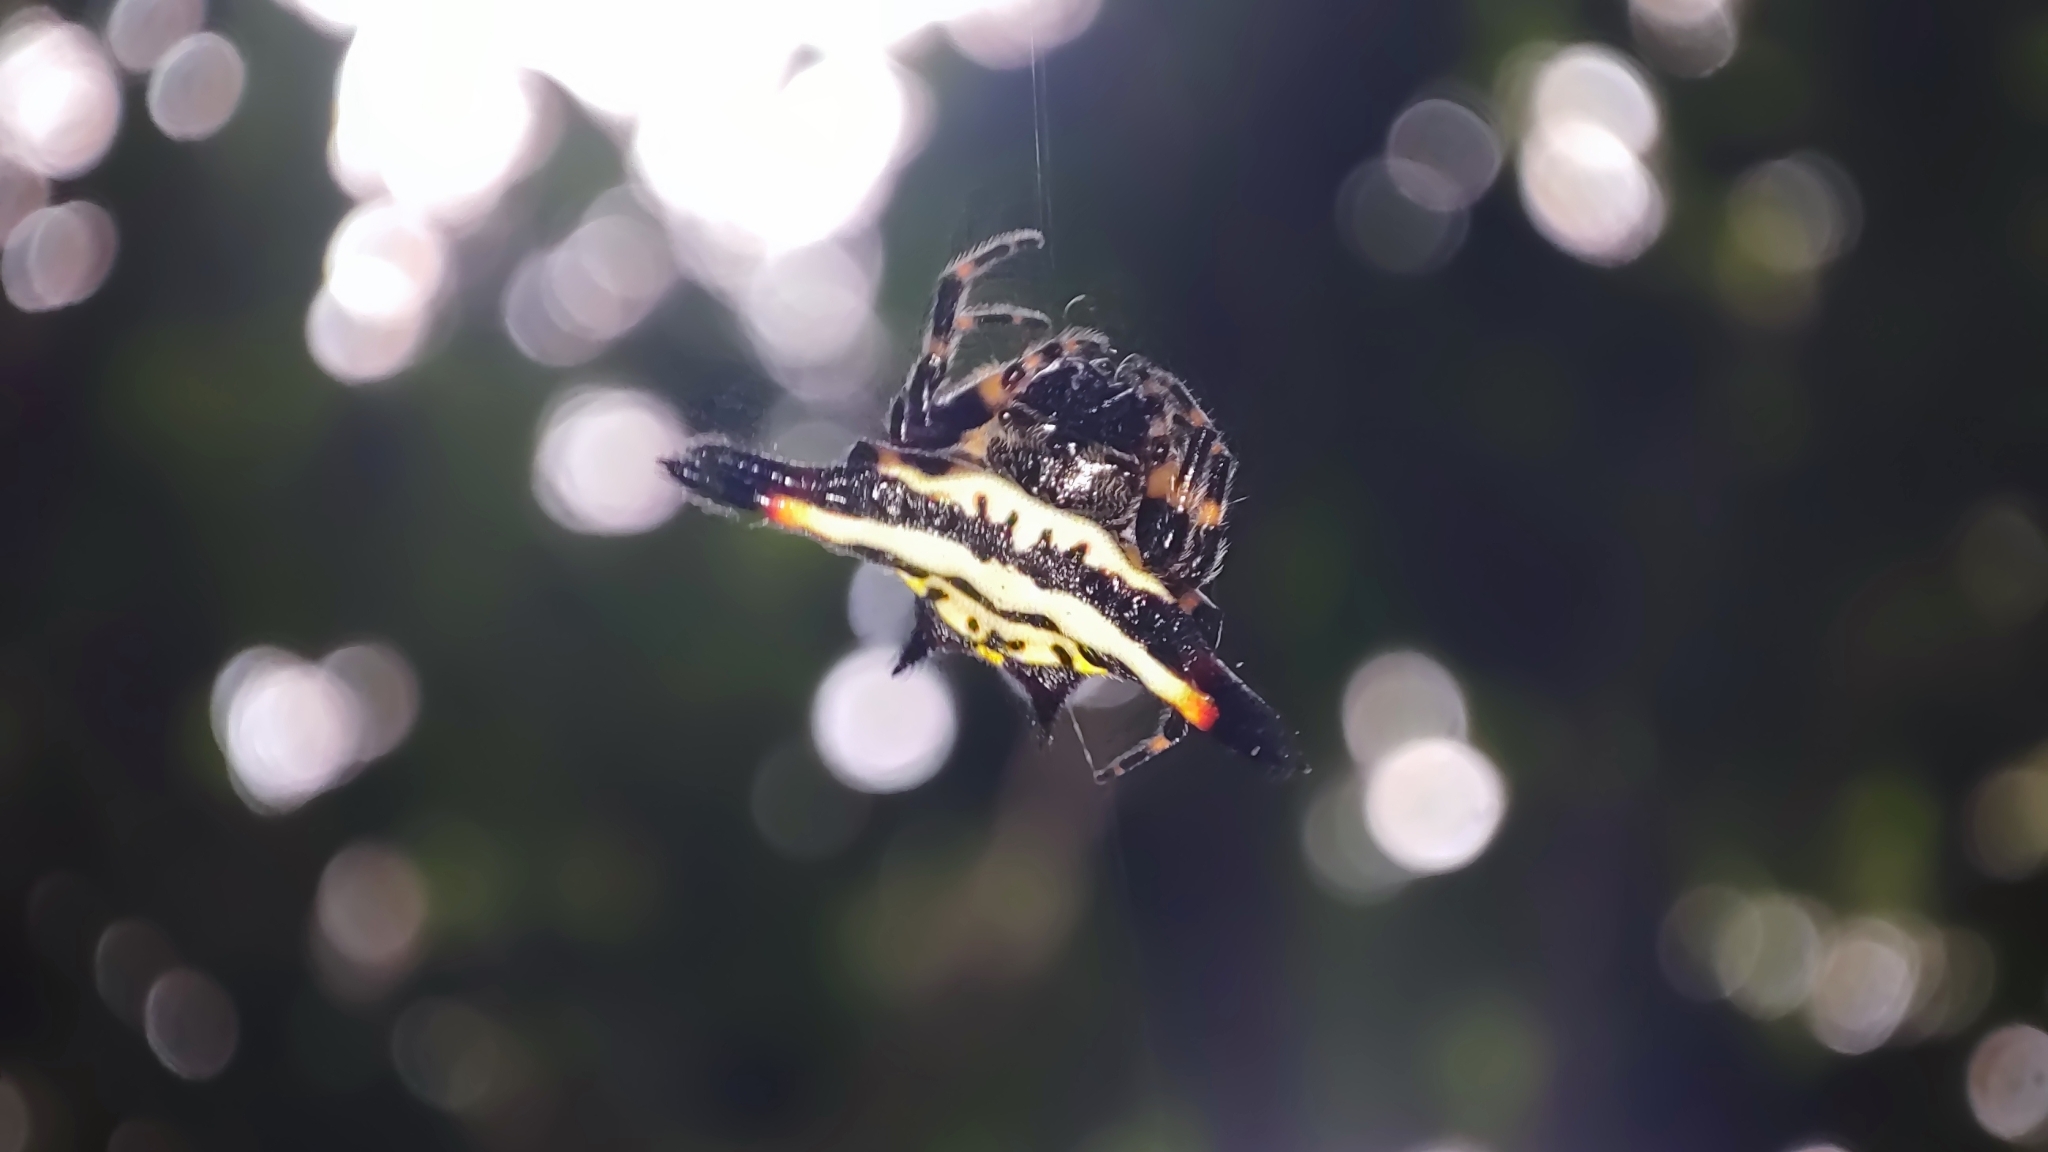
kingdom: Animalia
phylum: Arthropoda
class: Arachnida
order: Araneae
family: Araneidae
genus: Gasteracantha
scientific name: Gasteracantha geminata
